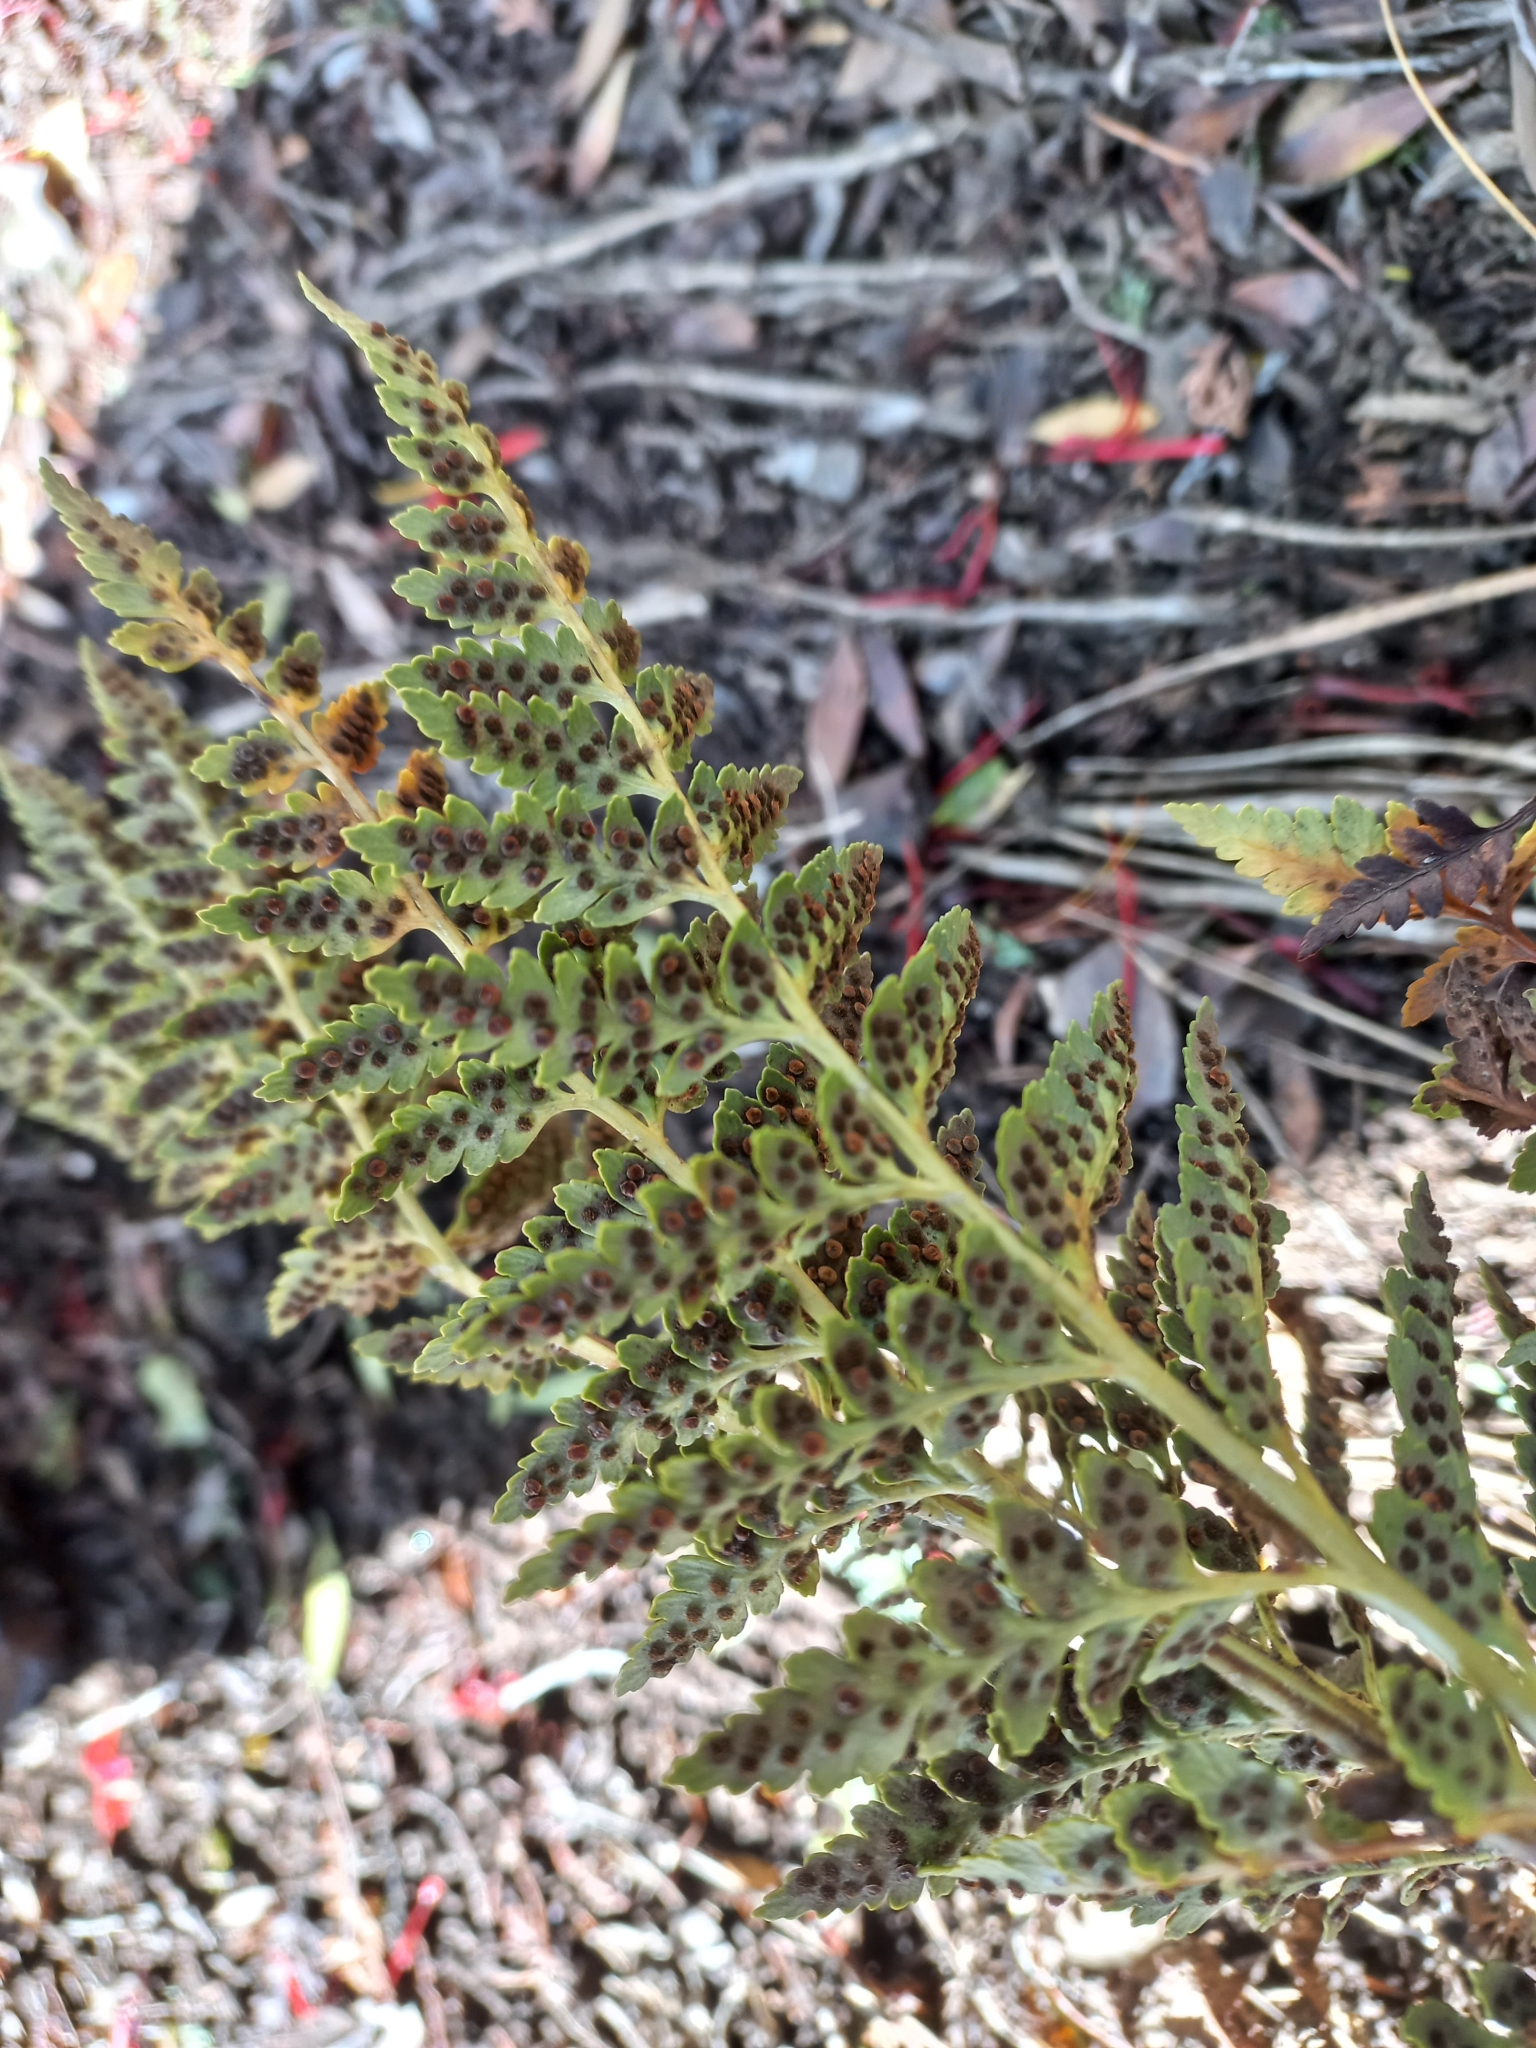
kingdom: Plantae
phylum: Tracheophyta
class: Polypodiopsida
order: Polypodiales
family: Dryopteridaceae
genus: Rumohra
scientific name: Rumohra adiantiformis
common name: Leather fern
